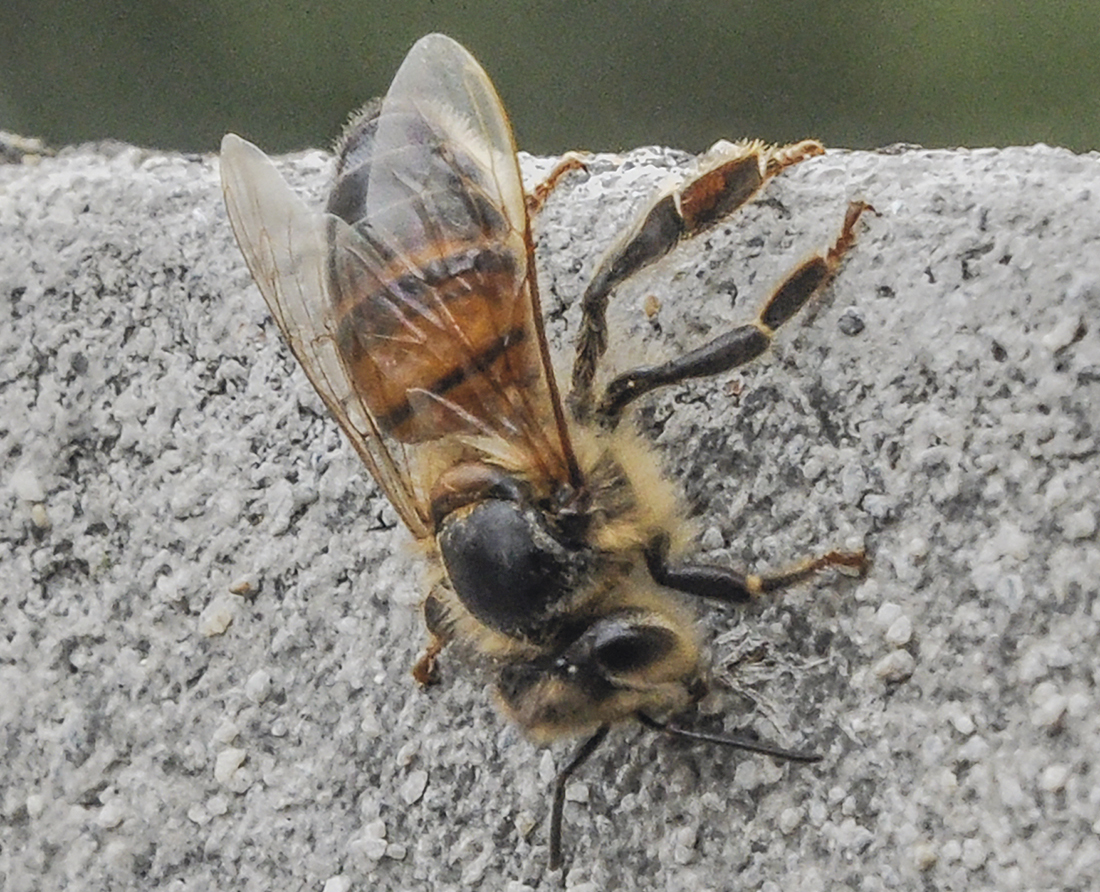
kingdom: Animalia
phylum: Arthropoda
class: Insecta
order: Hymenoptera
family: Apidae
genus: Apis
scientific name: Apis mellifera
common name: Honey bee
